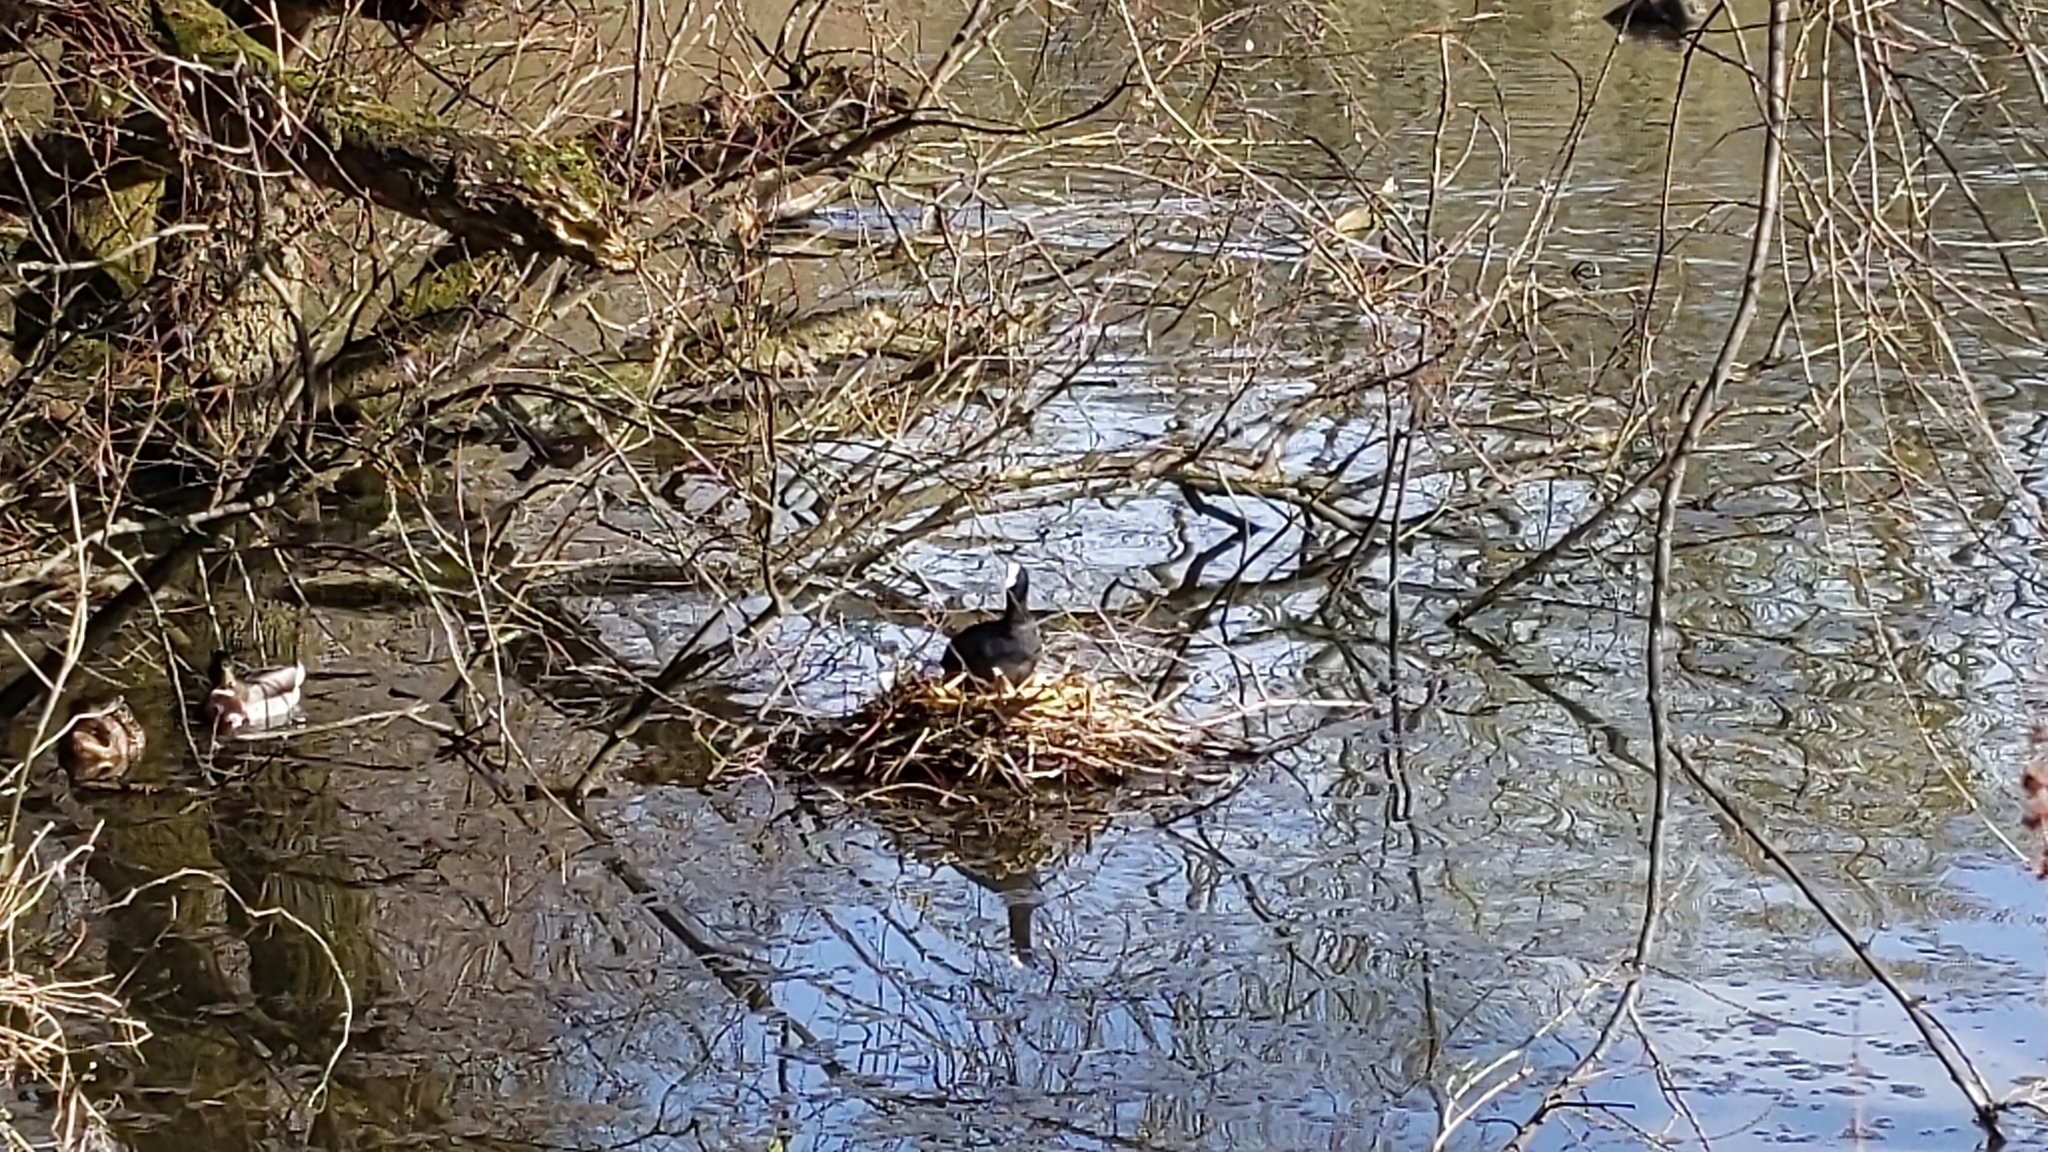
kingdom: Animalia
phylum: Chordata
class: Aves
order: Gruiformes
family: Rallidae
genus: Fulica
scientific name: Fulica atra
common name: Eurasian coot
